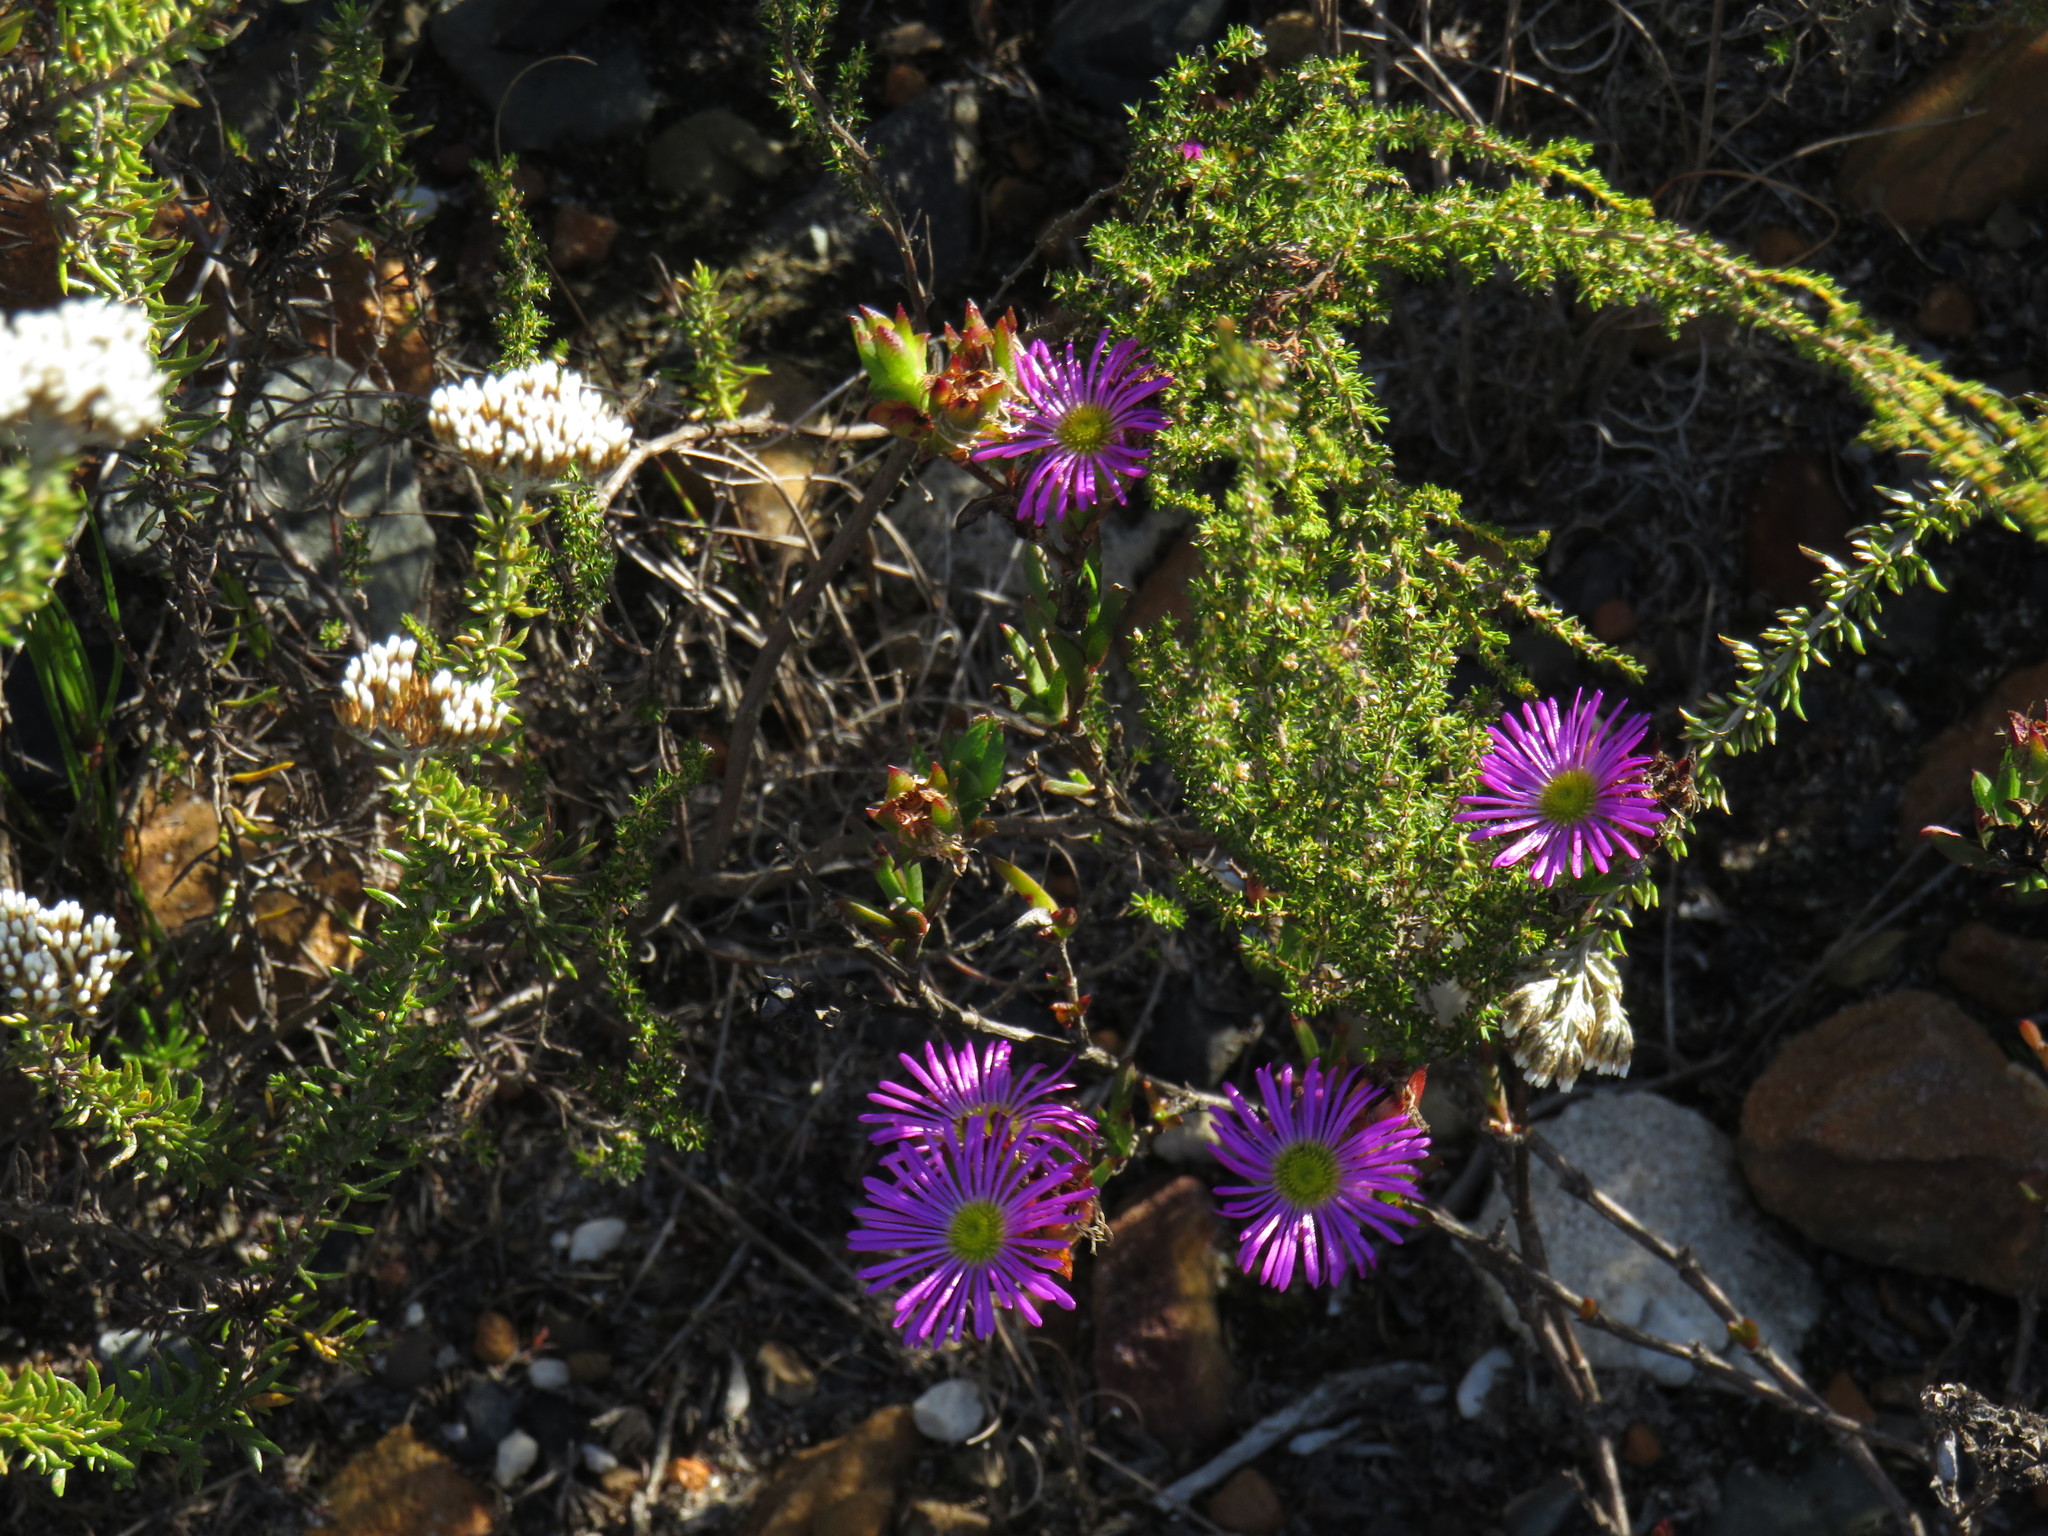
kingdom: Plantae
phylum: Tracheophyta
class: Magnoliopsida
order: Caryophyllales
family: Aizoaceae
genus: Erepsia
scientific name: Erepsia anceps
